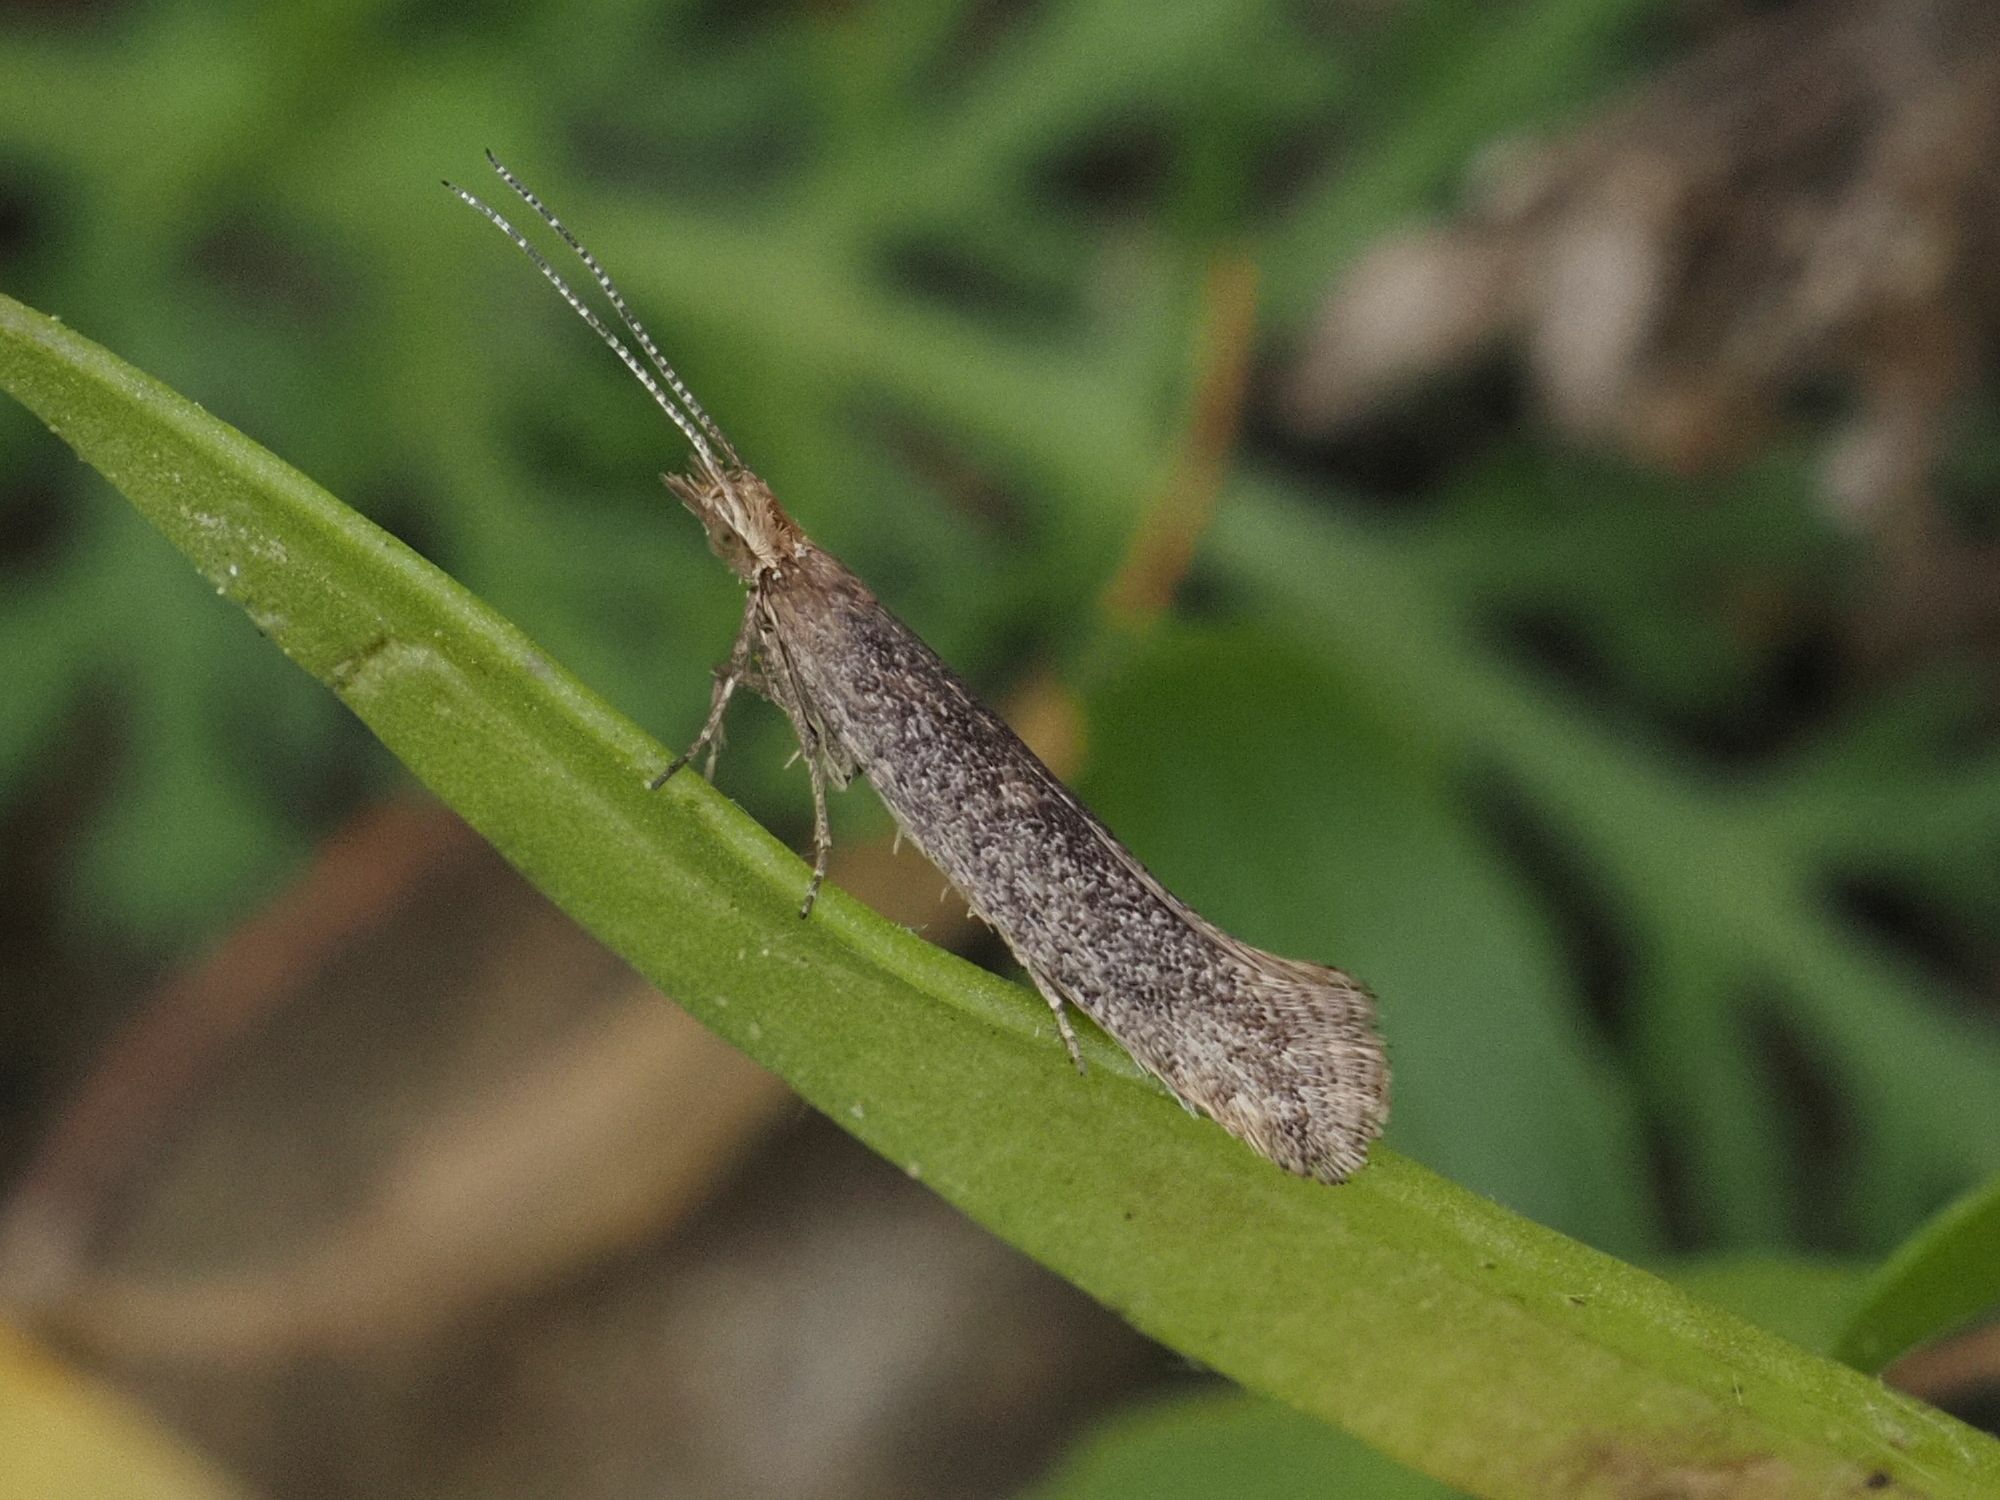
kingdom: Animalia
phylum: Arthropoda
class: Insecta
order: Lepidoptera
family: Plutellidae
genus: Plutella
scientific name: Plutella xylostella
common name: Diamond-back moth
